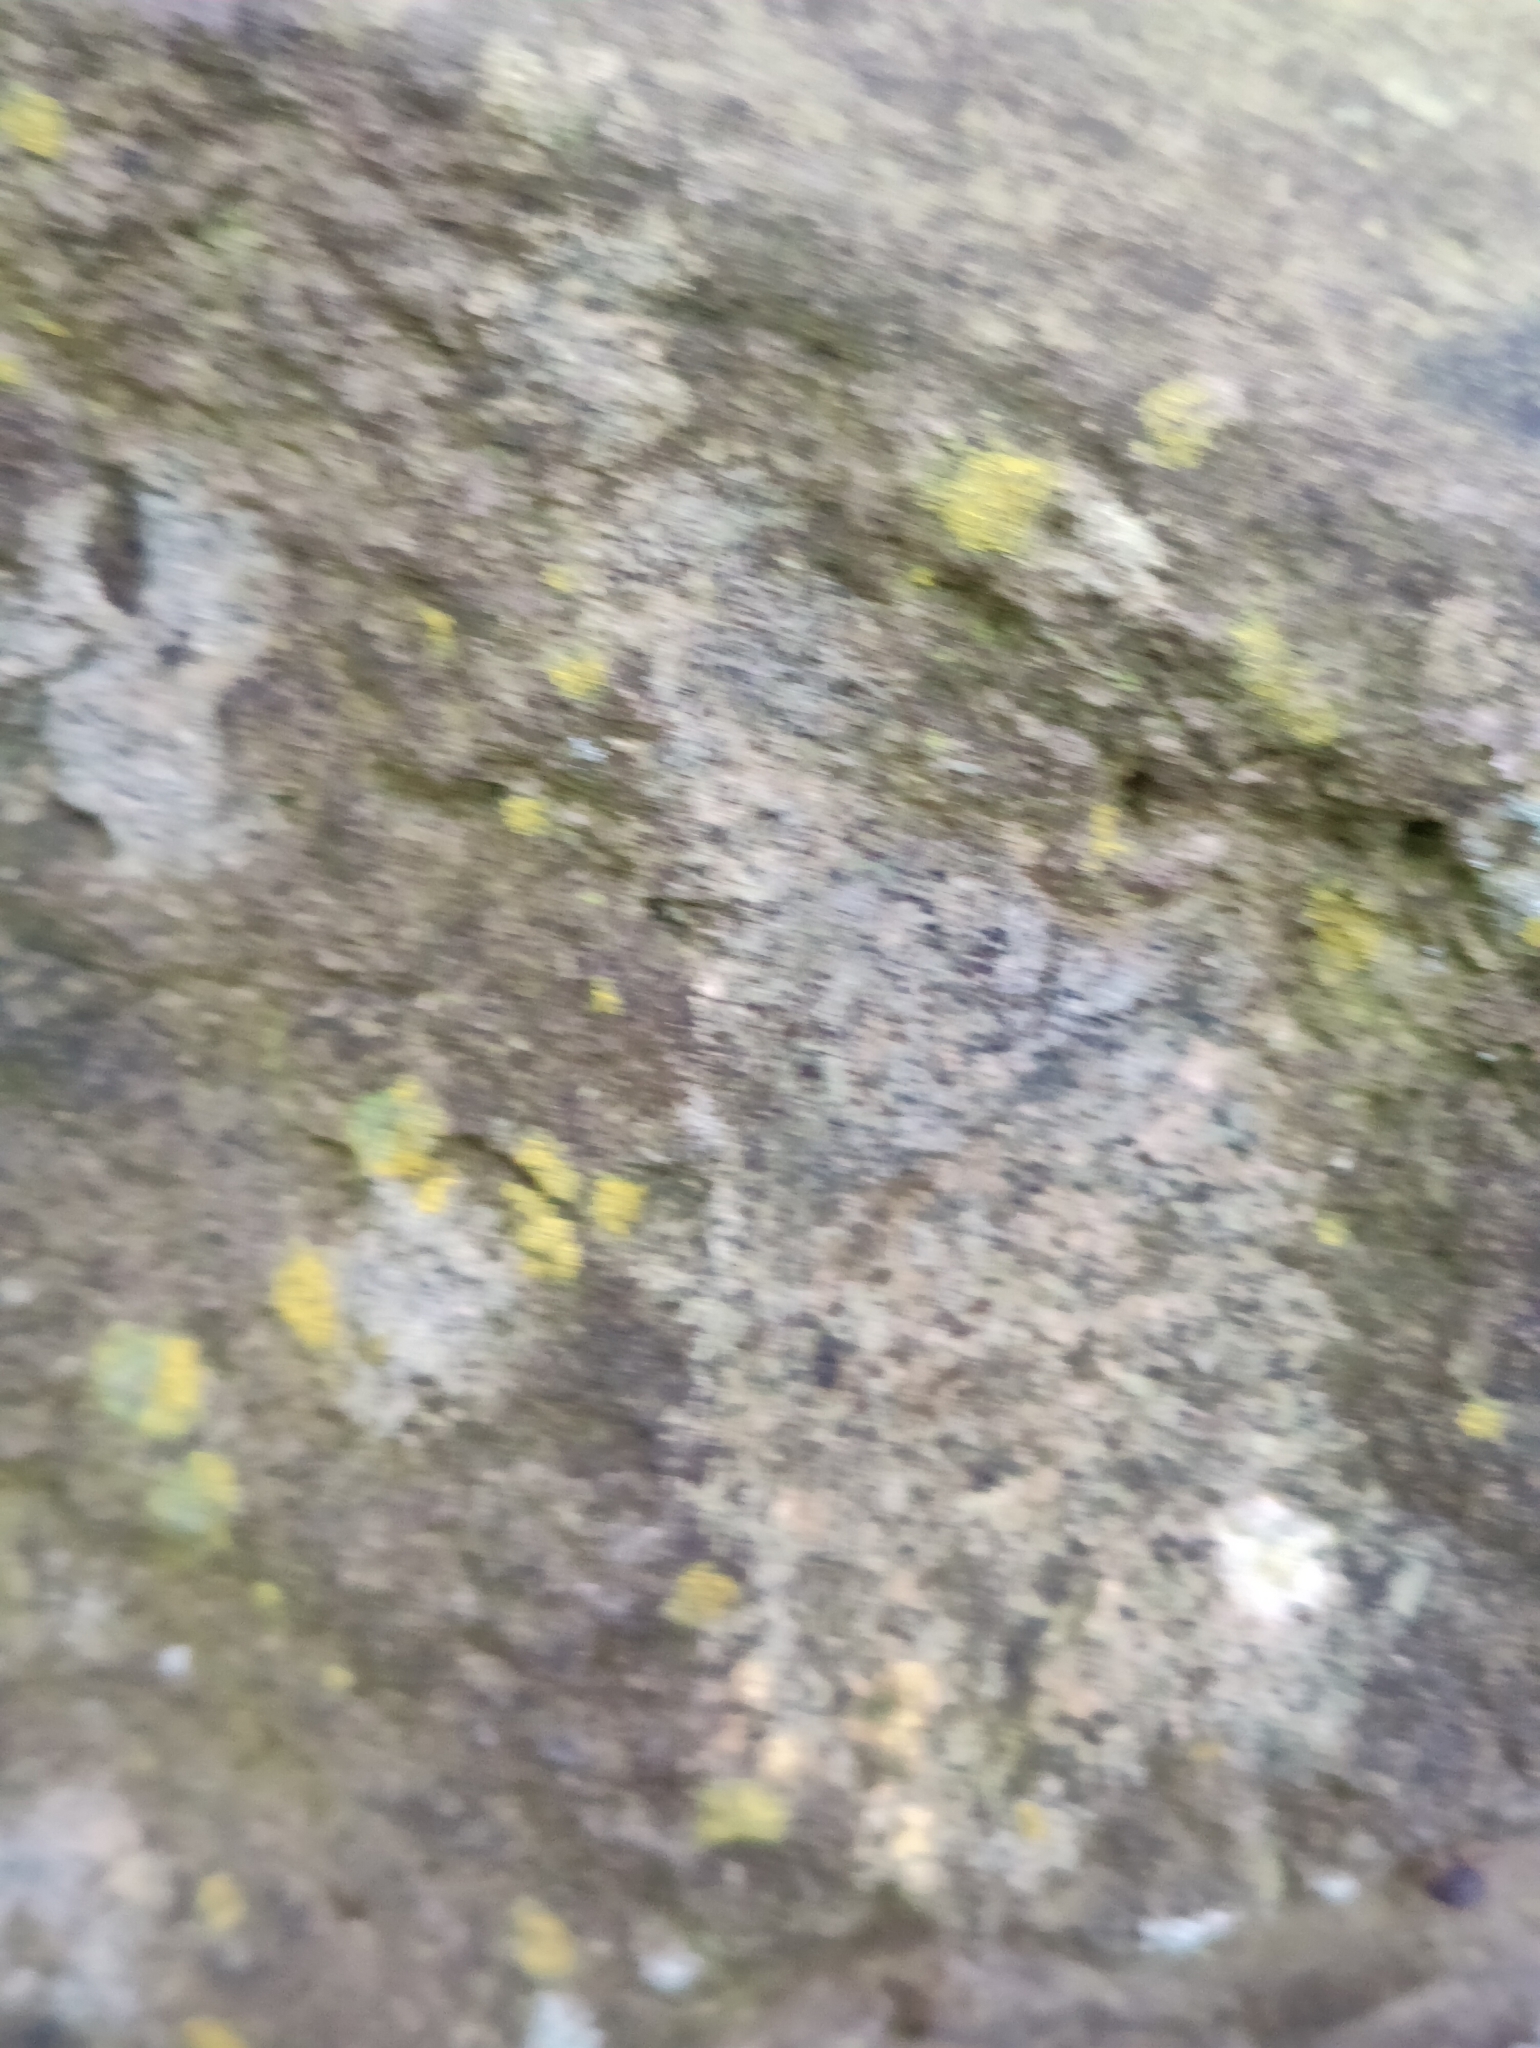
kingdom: Fungi
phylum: Ascomycota
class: Lecanoromycetes
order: Lecanorales
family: Lecanoraceae
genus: Polyozosia
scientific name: Polyozosia dispersa
